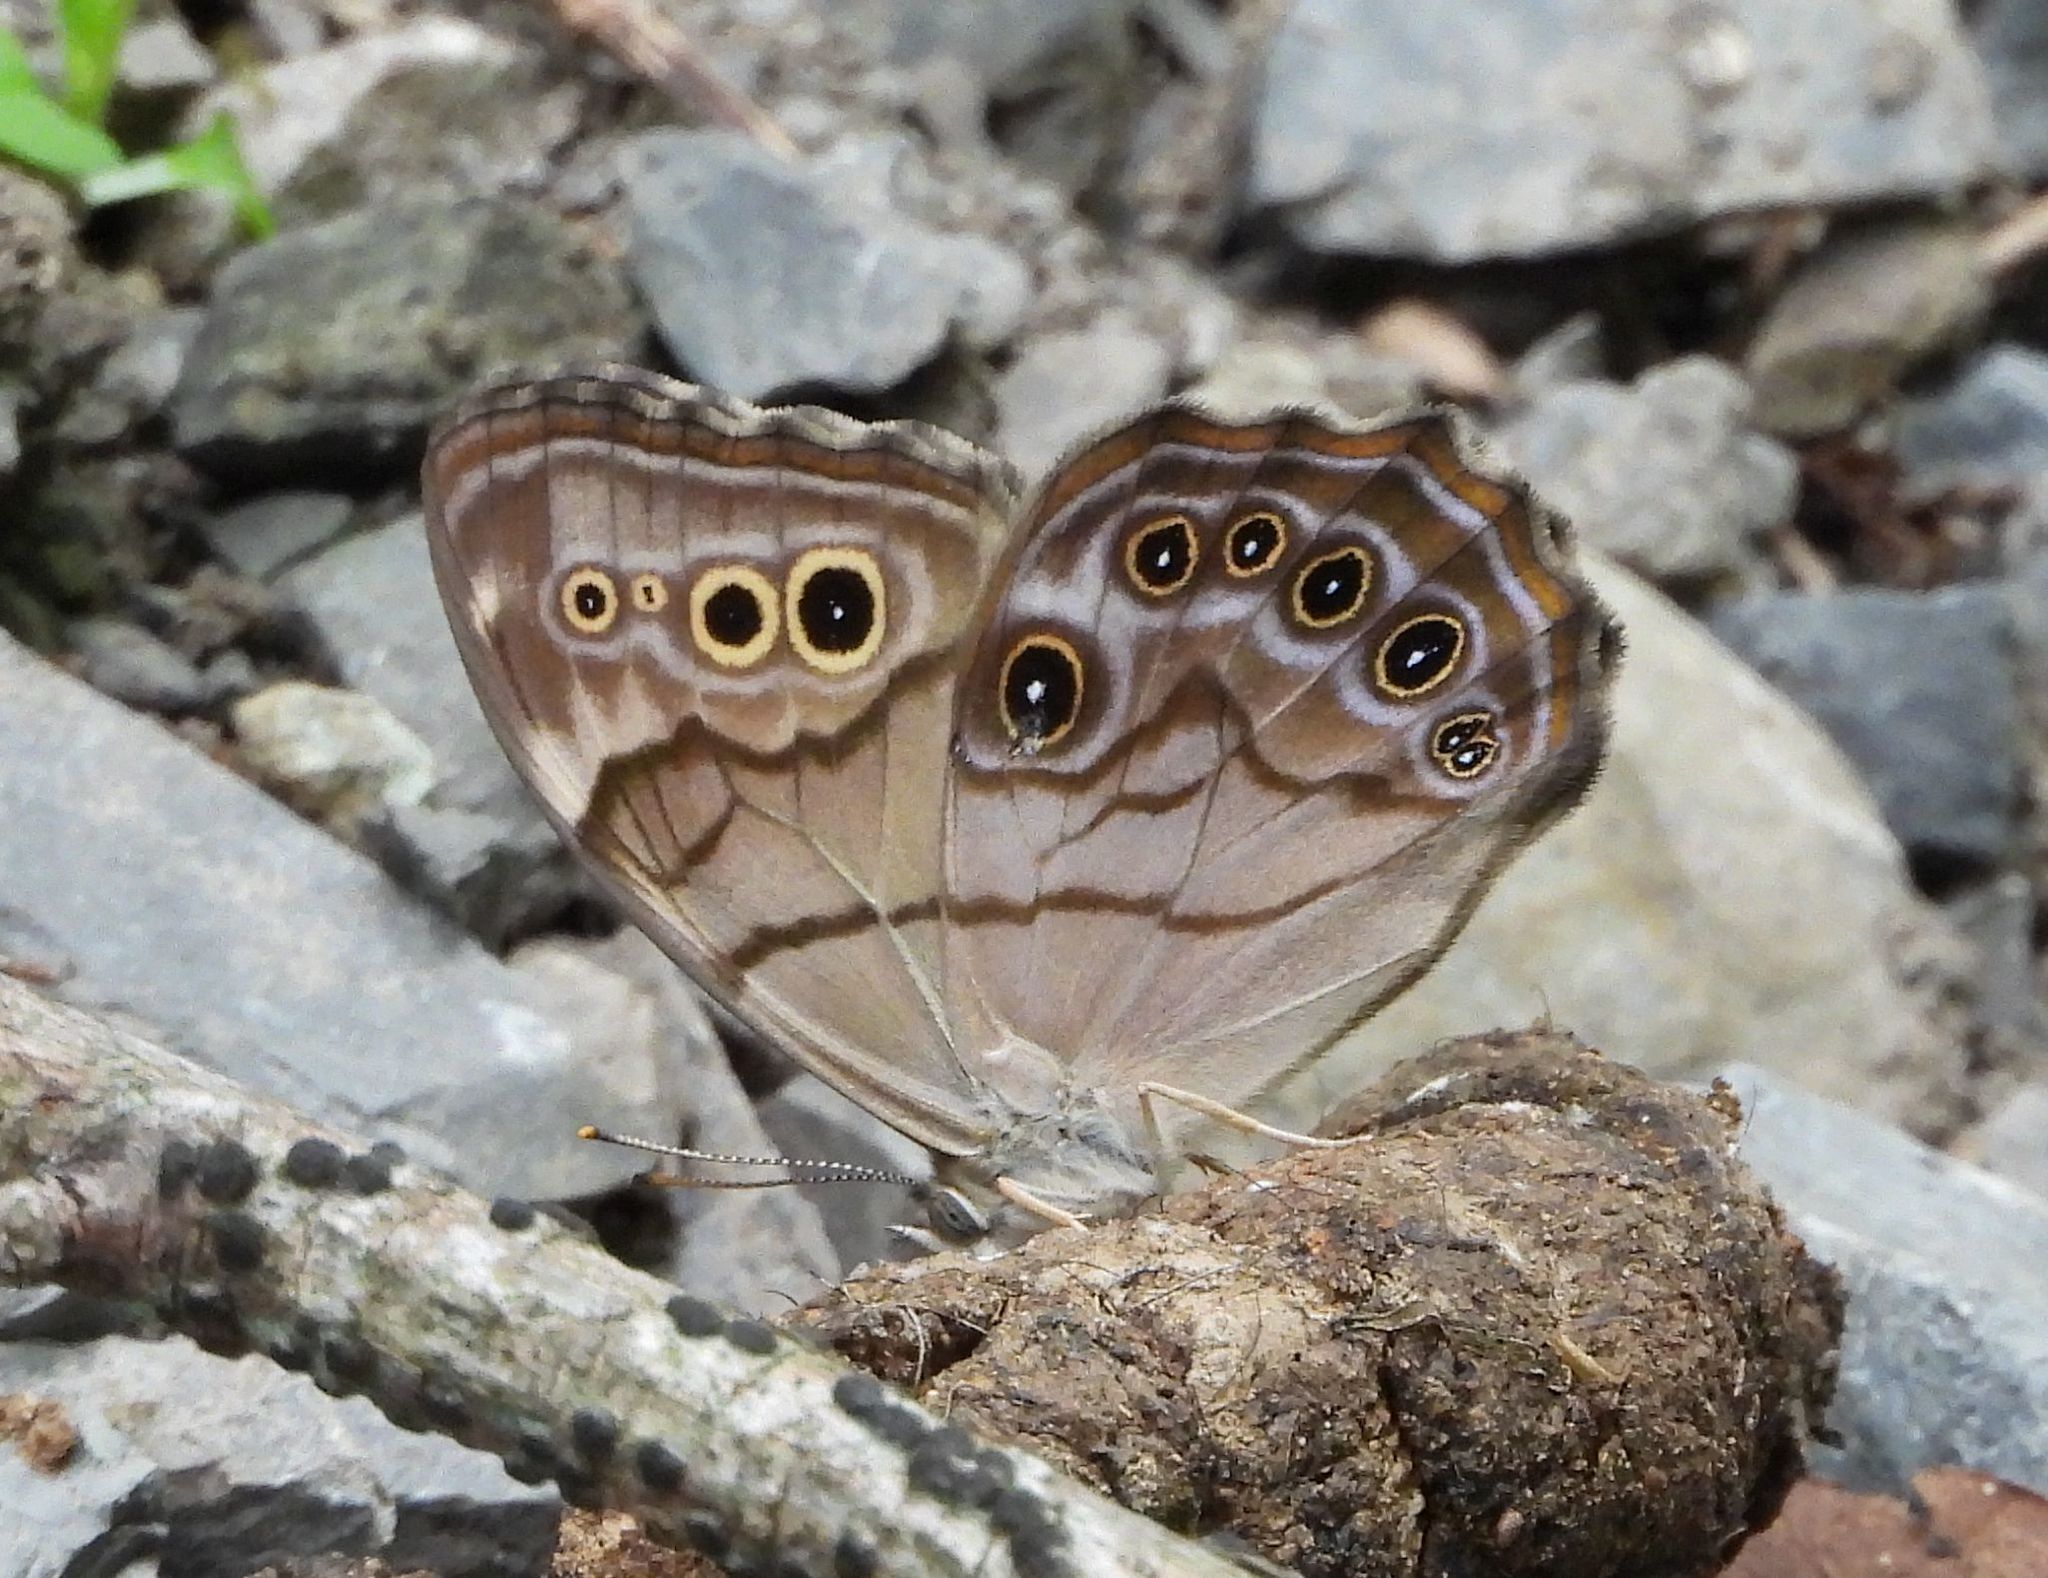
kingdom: Animalia
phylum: Arthropoda
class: Insecta
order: Lepidoptera
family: Nymphalidae
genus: Lethe
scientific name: Lethe anthedon
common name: Northern pearly-eye
